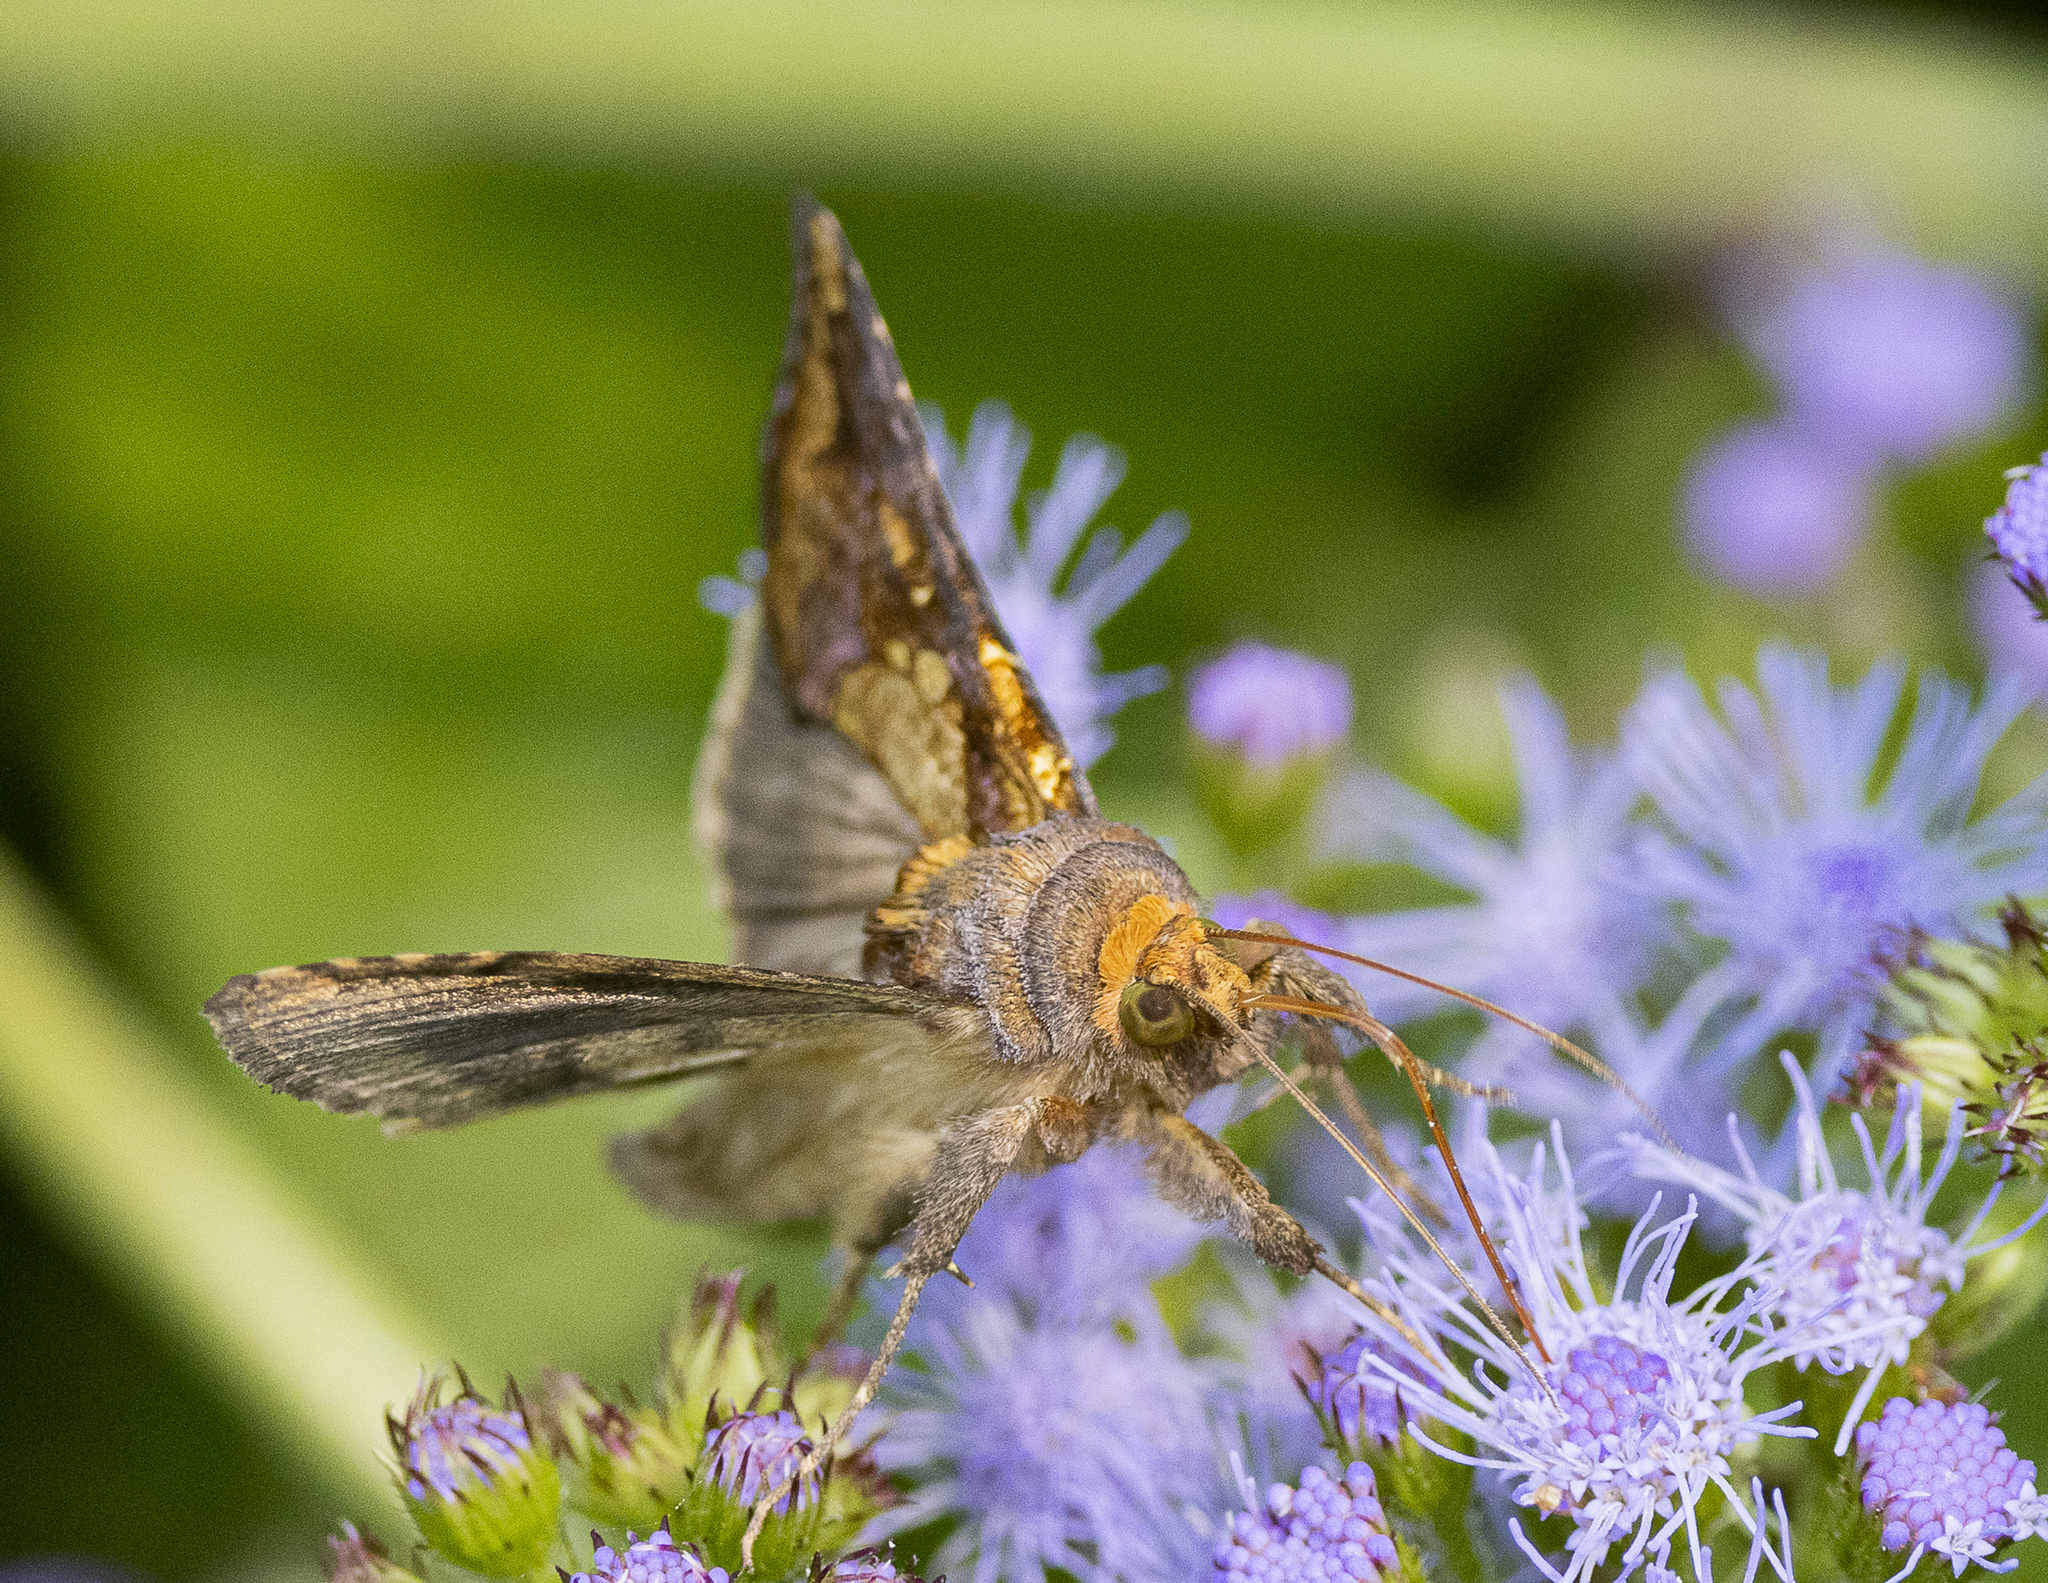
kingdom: Animalia
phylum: Arthropoda
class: Insecta
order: Lepidoptera
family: Noctuidae
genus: Argyrogramma
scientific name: Argyrogramma verruca
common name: Golden looper moth
